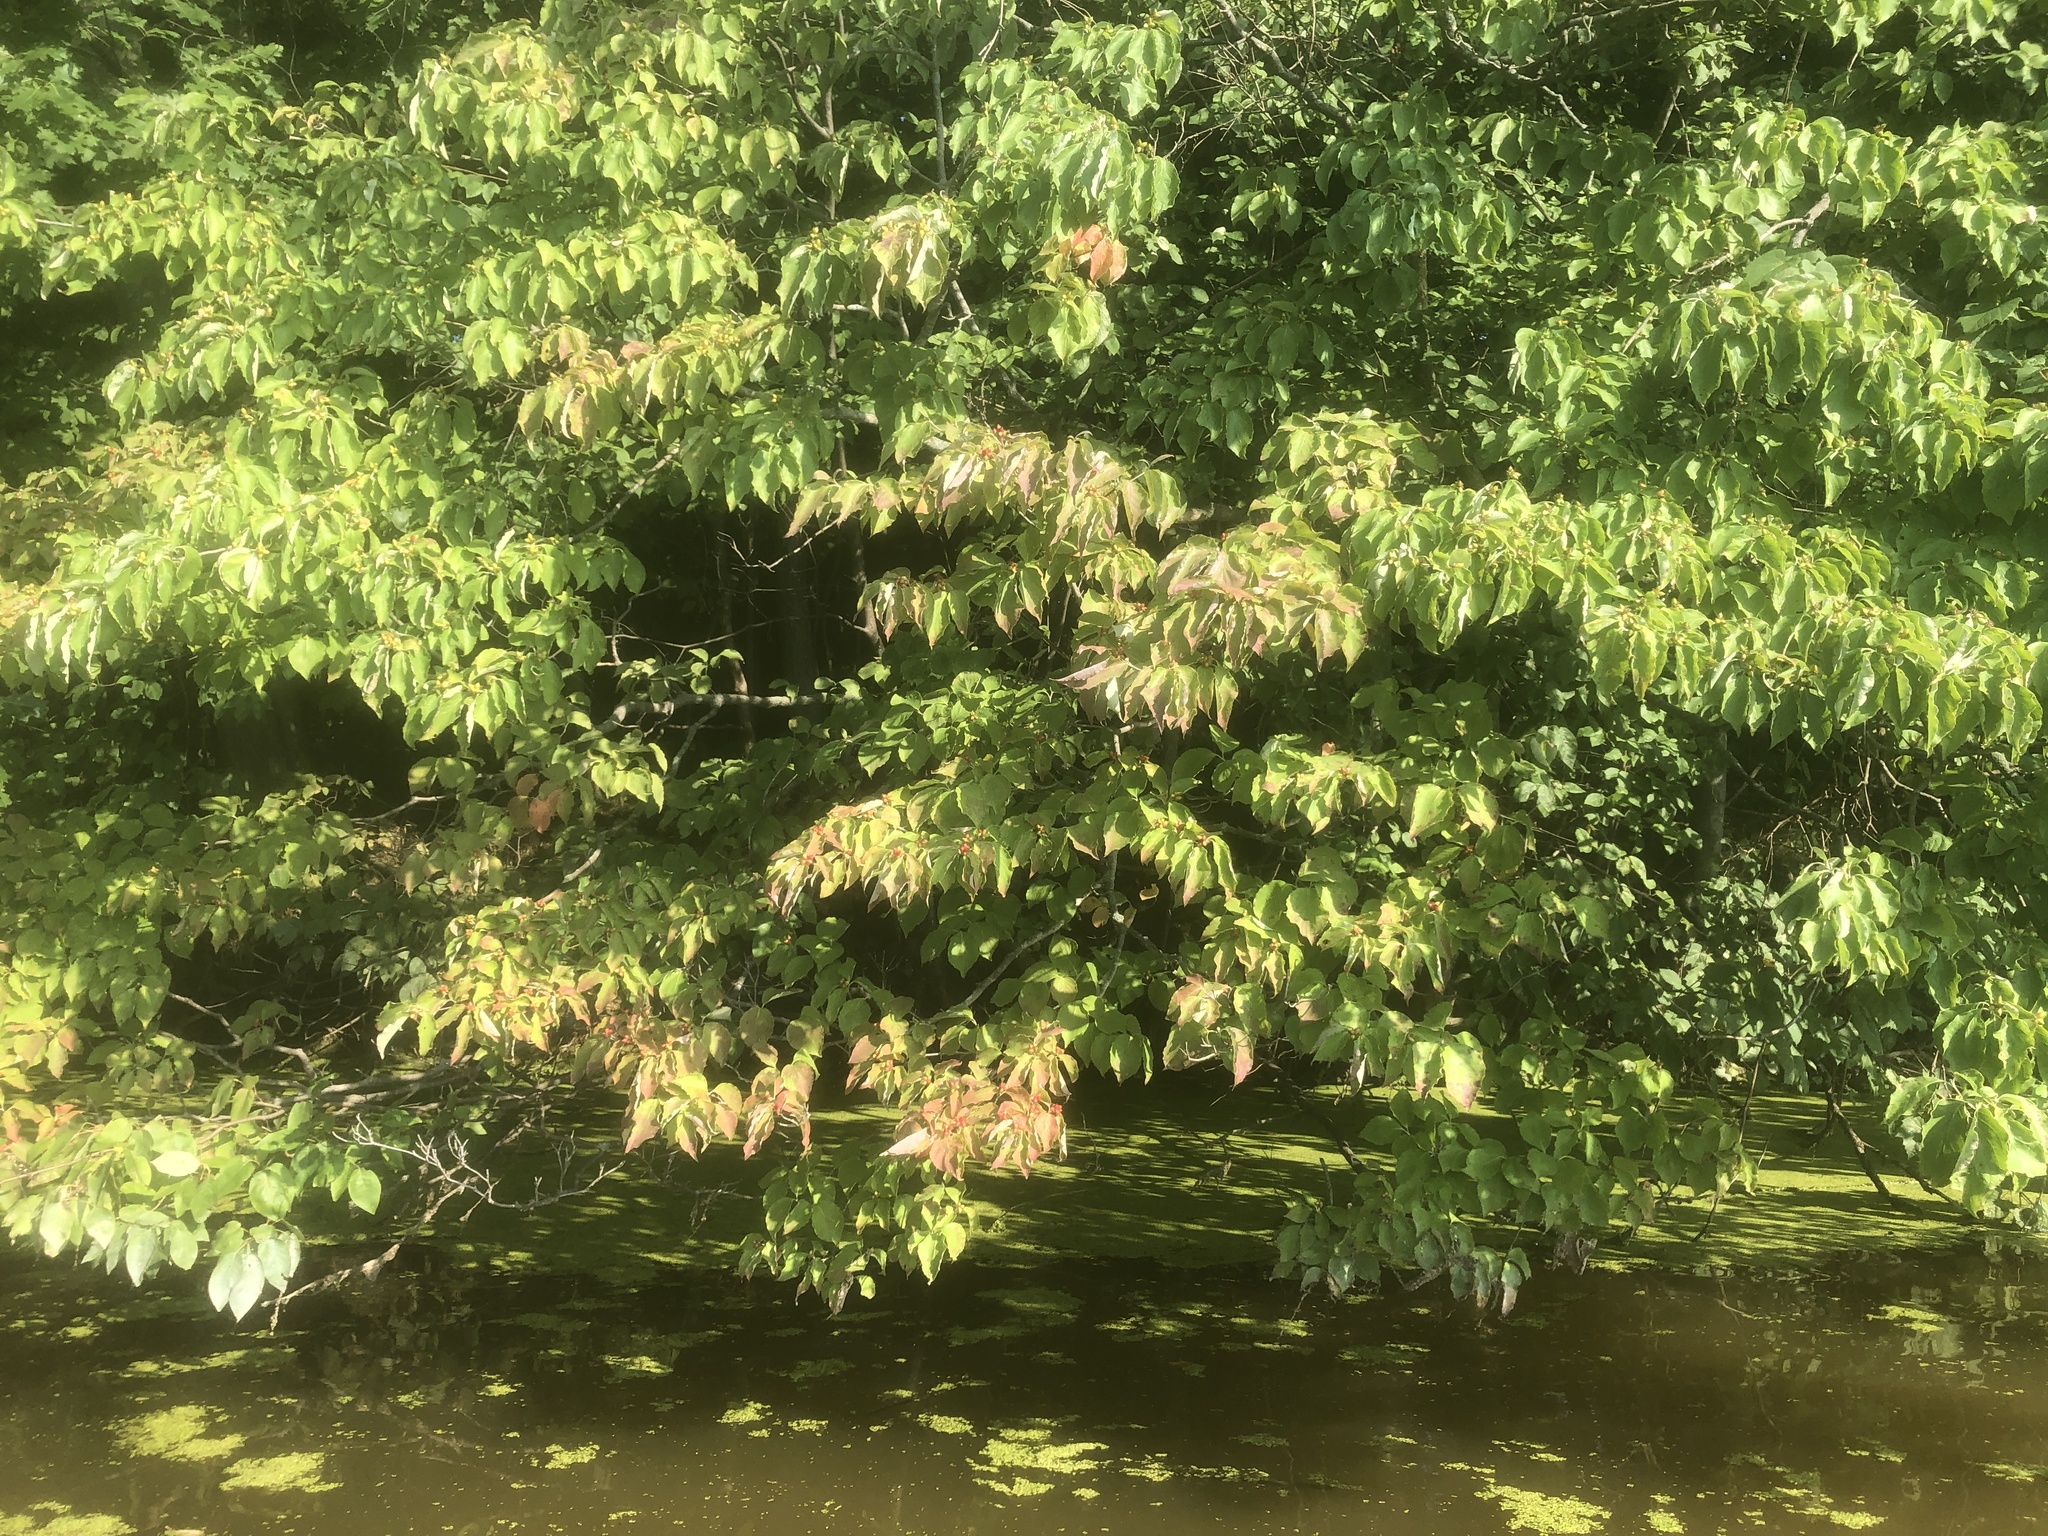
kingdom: Plantae
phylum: Tracheophyta
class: Magnoliopsida
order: Cornales
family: Cornaceae
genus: Cornus
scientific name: Cornus florida
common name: Flowering dogwood
